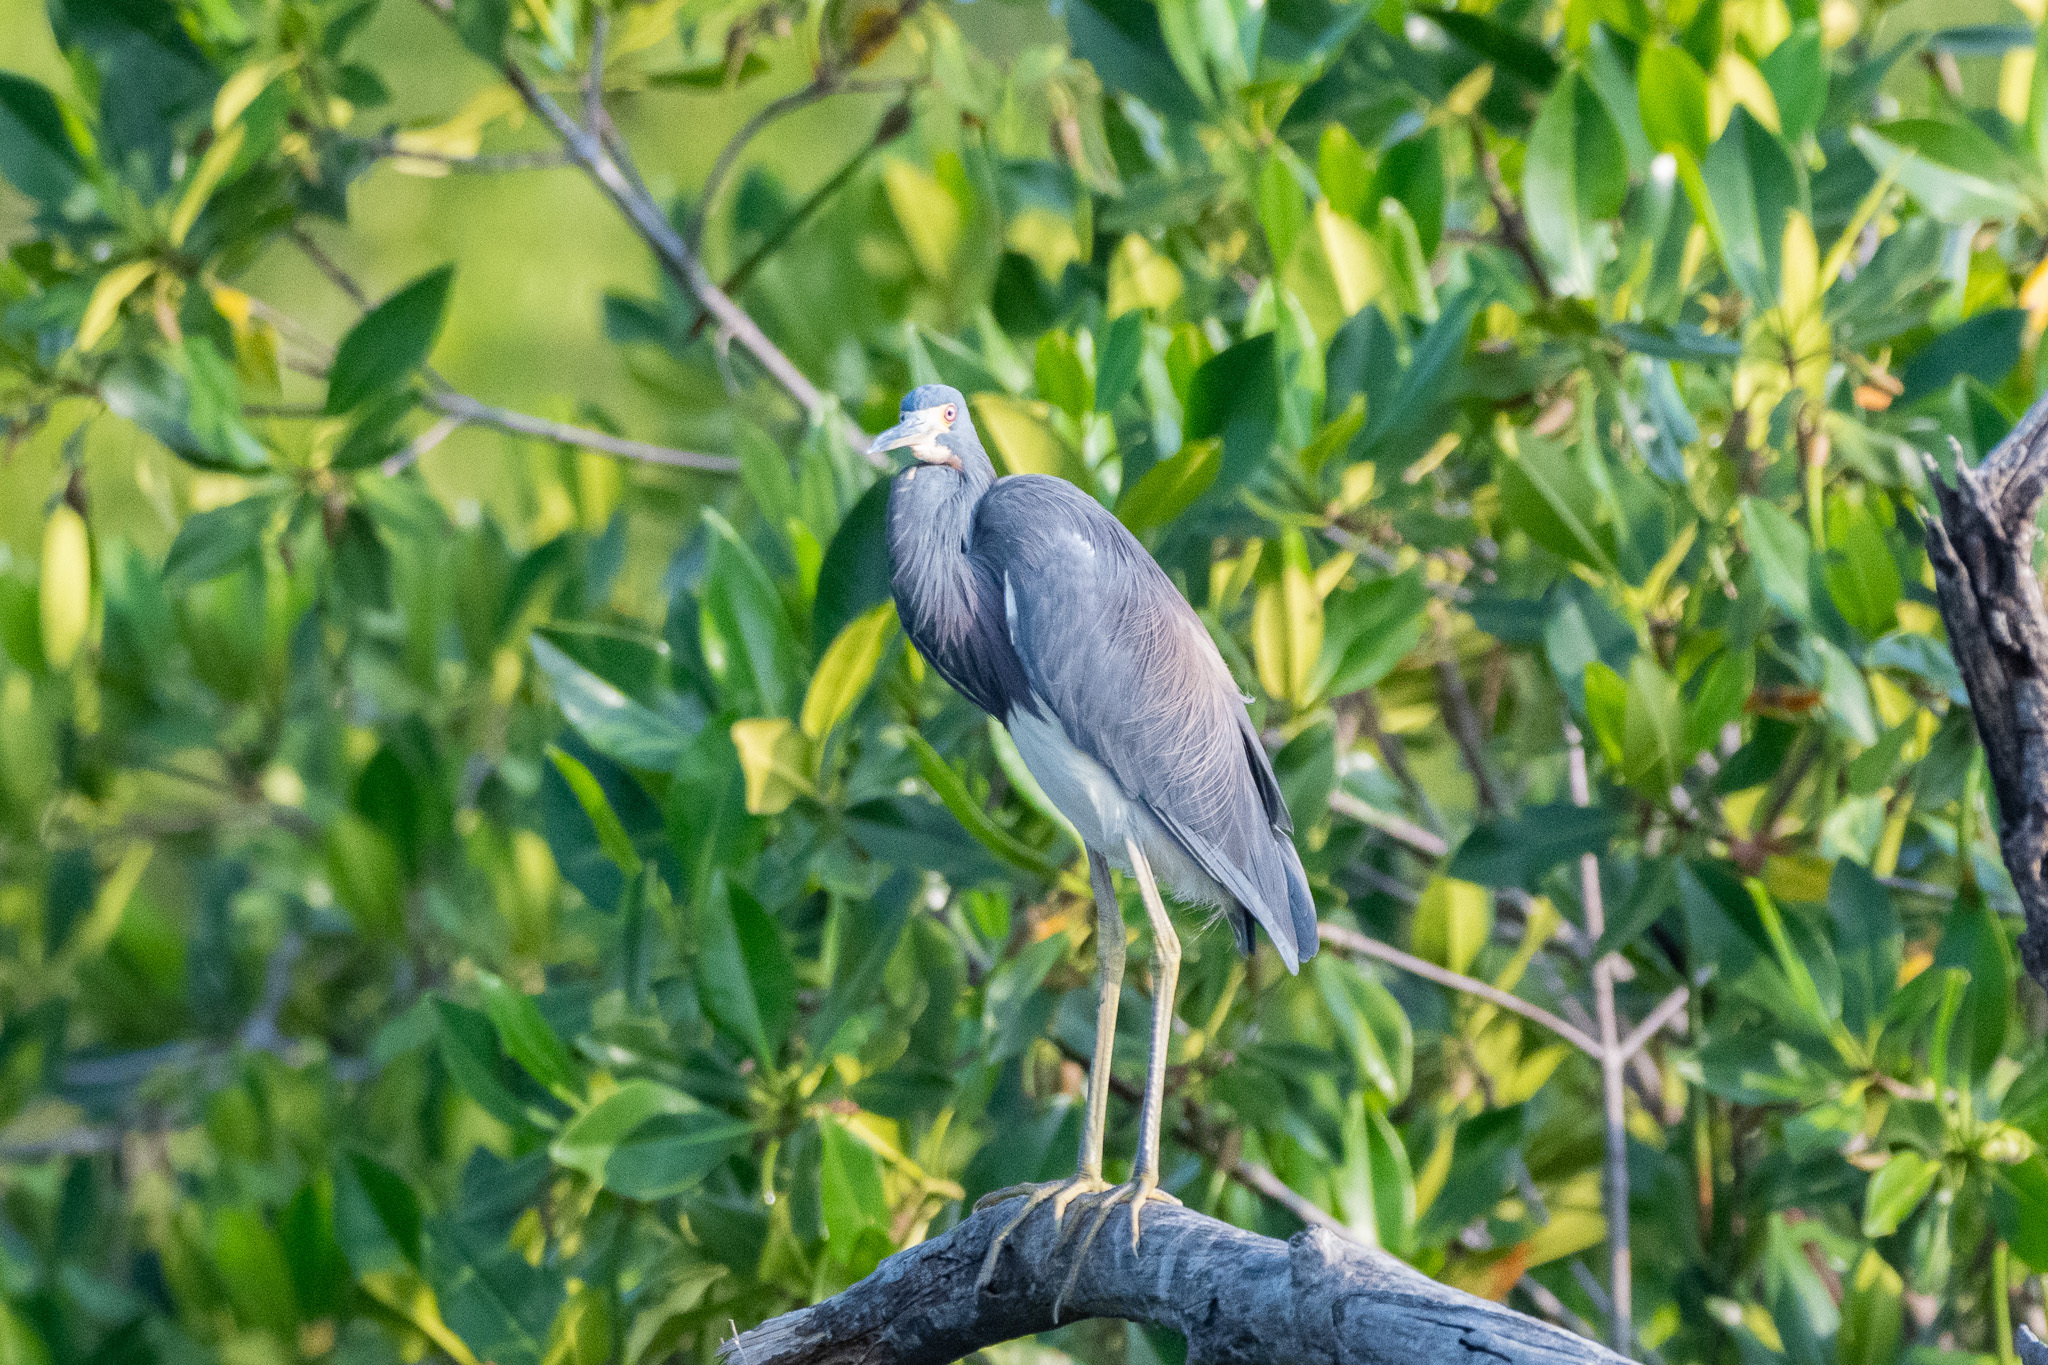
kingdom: Animalia
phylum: Chordata
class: Aves
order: Pelecaniformes
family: Ardeidae
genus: Egretta
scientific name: Egretta tricolor
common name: Tricolored heron
